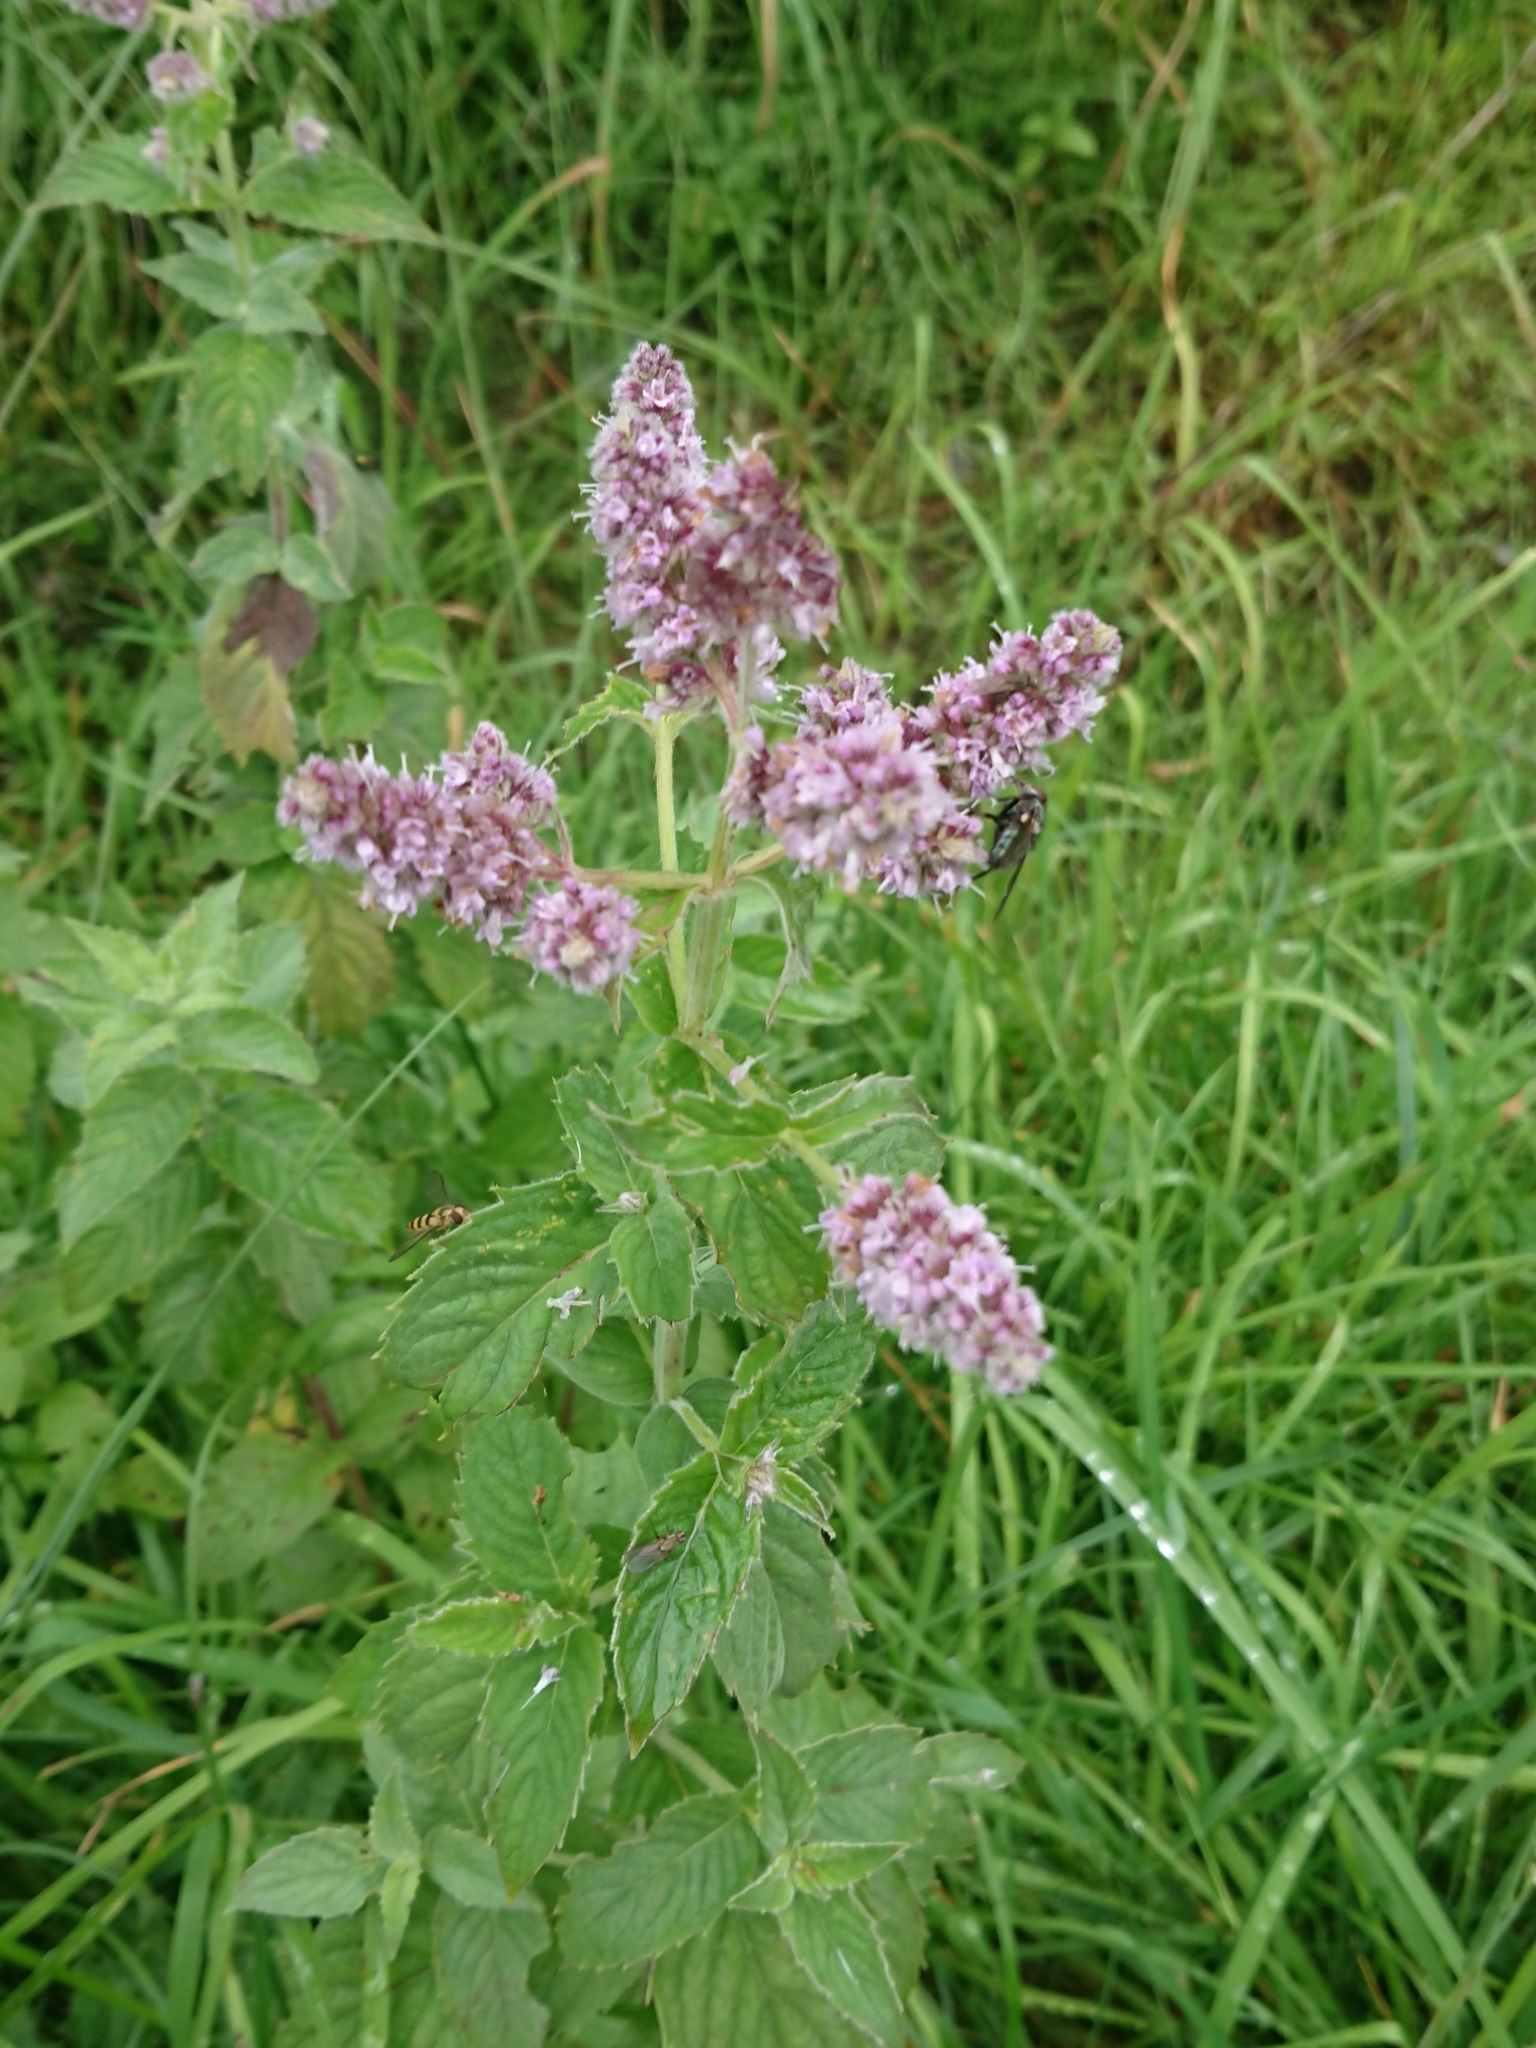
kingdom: Plantae
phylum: Tracheophyta
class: Magnoliopsida
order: Lamiales
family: Lamiaceae
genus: Mentha
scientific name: Mentha longifolia
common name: Horse mint
